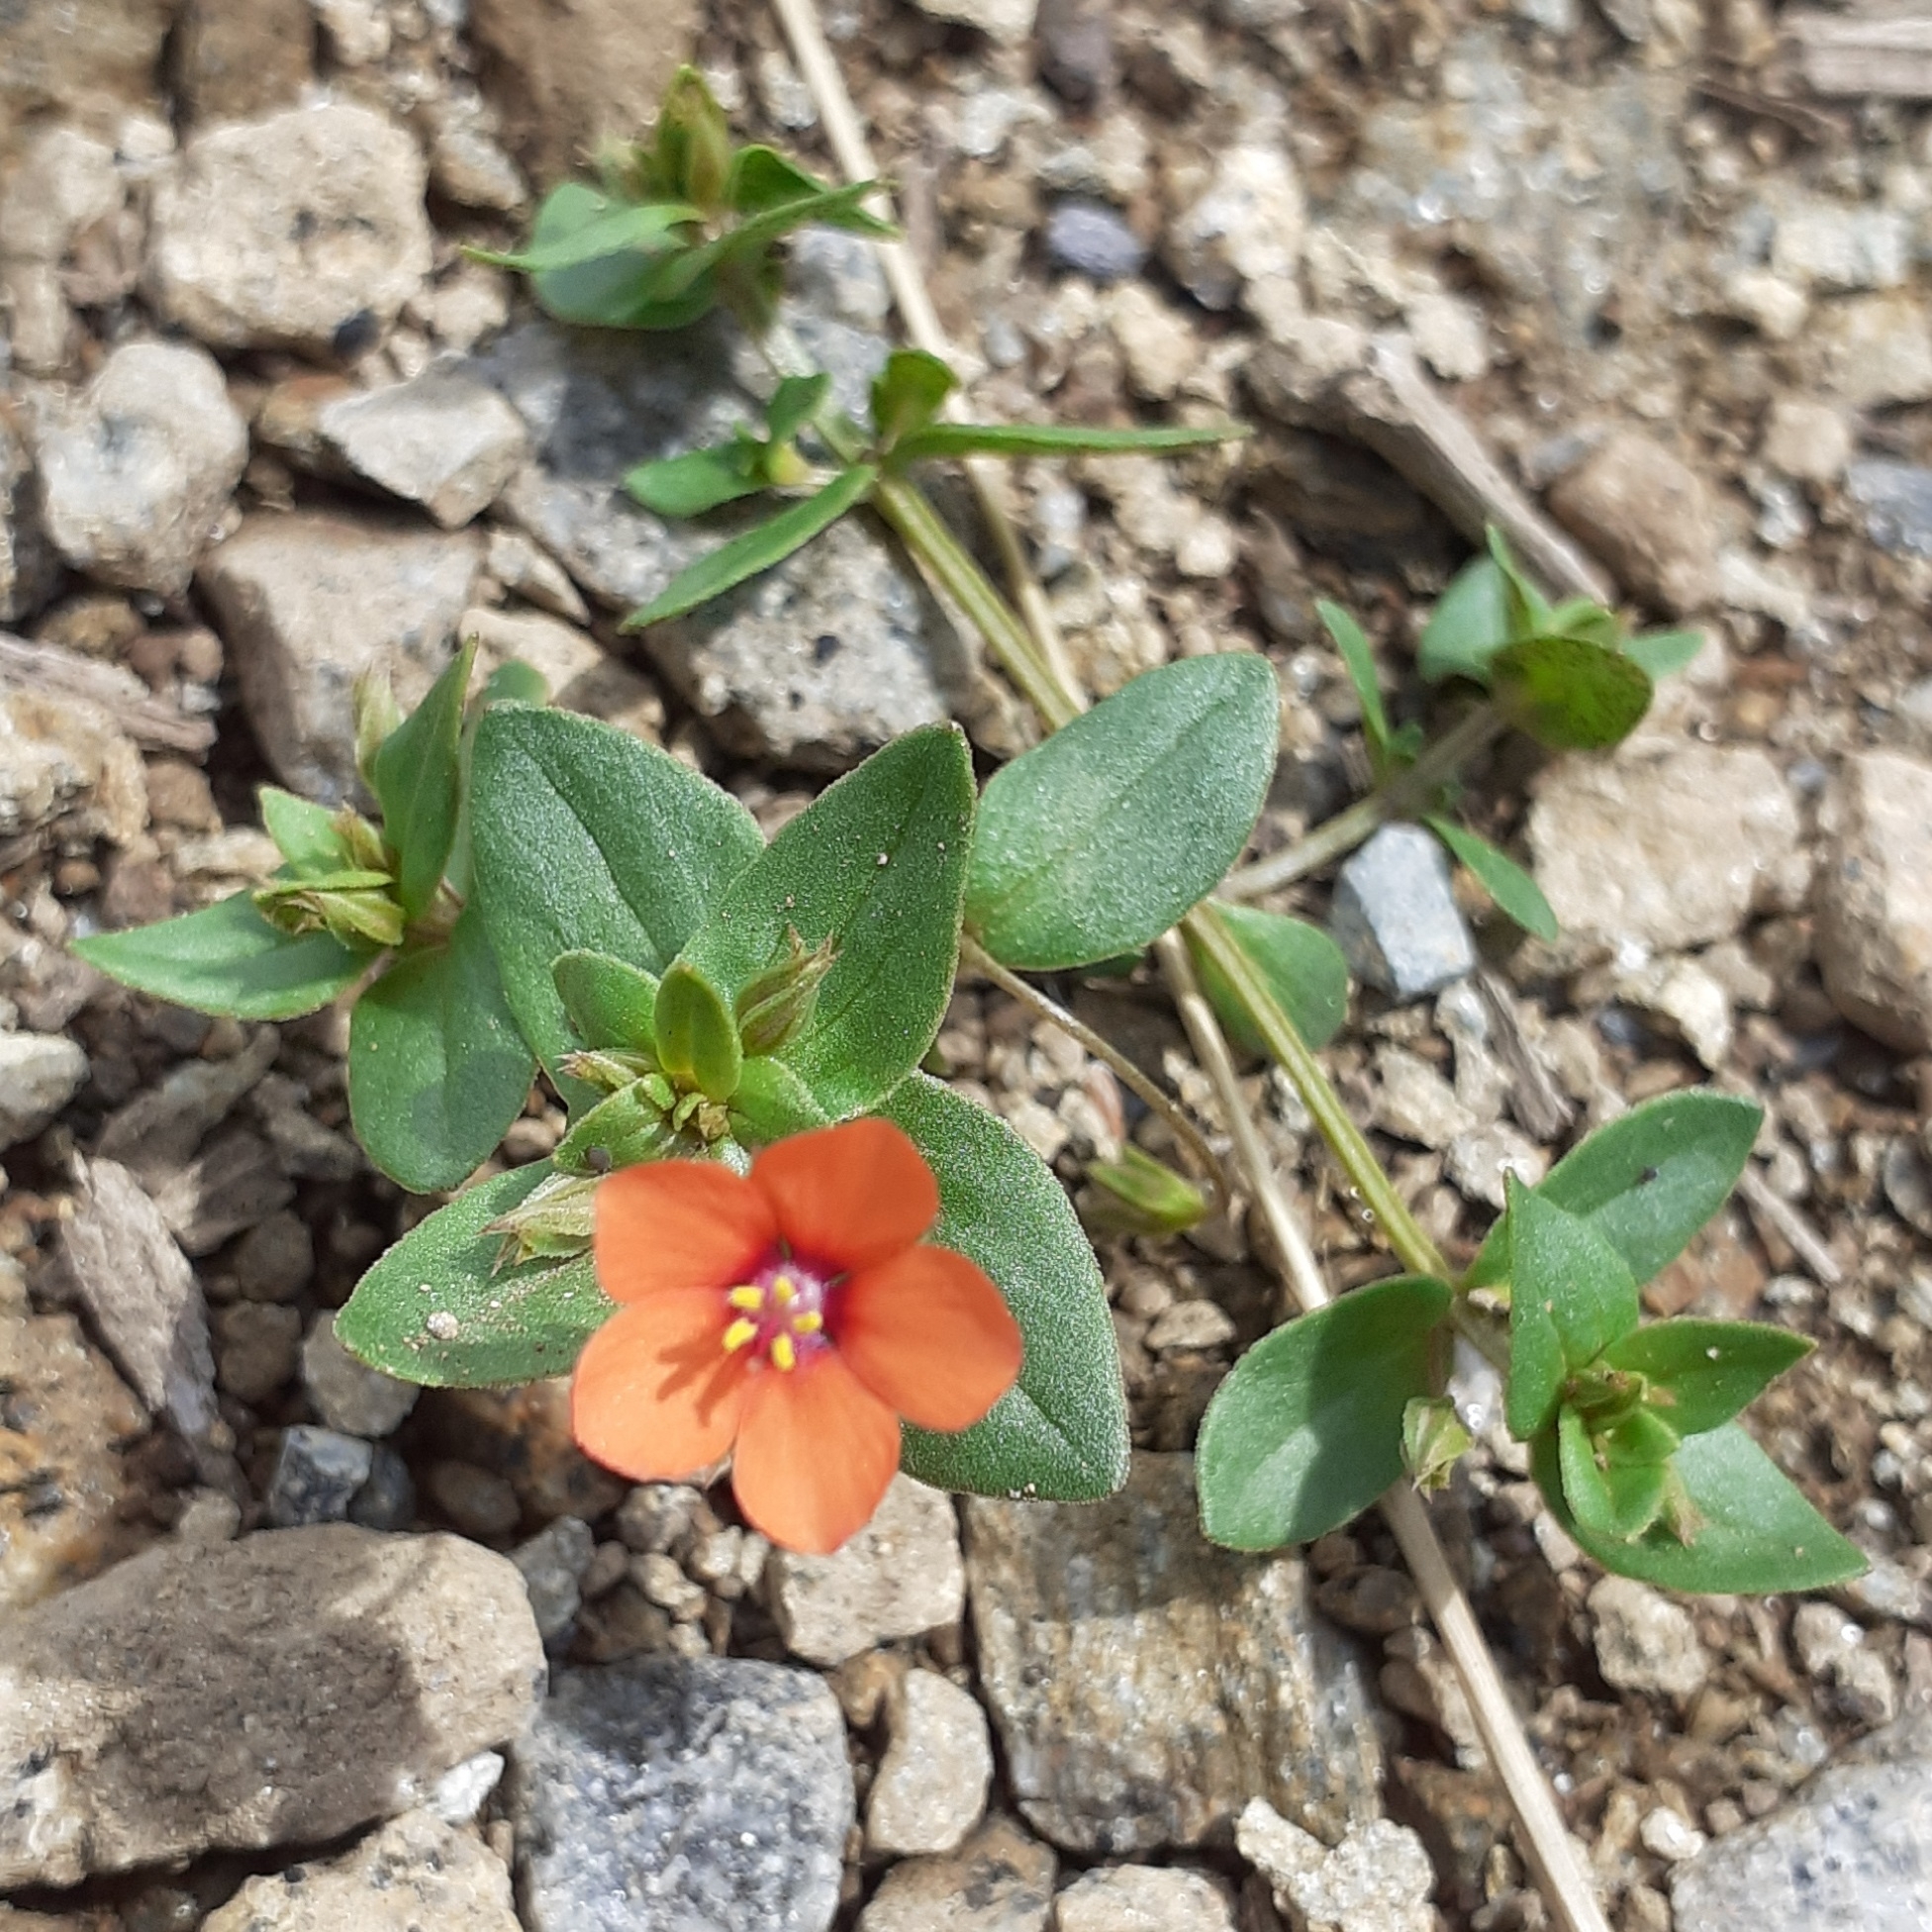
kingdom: Plantae
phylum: Tracheophyta
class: Magnoliopsida
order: Ericales
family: Primulaceae
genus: Lysimachia
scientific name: Lysimachia arvensis
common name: Scarlet pimpernel
